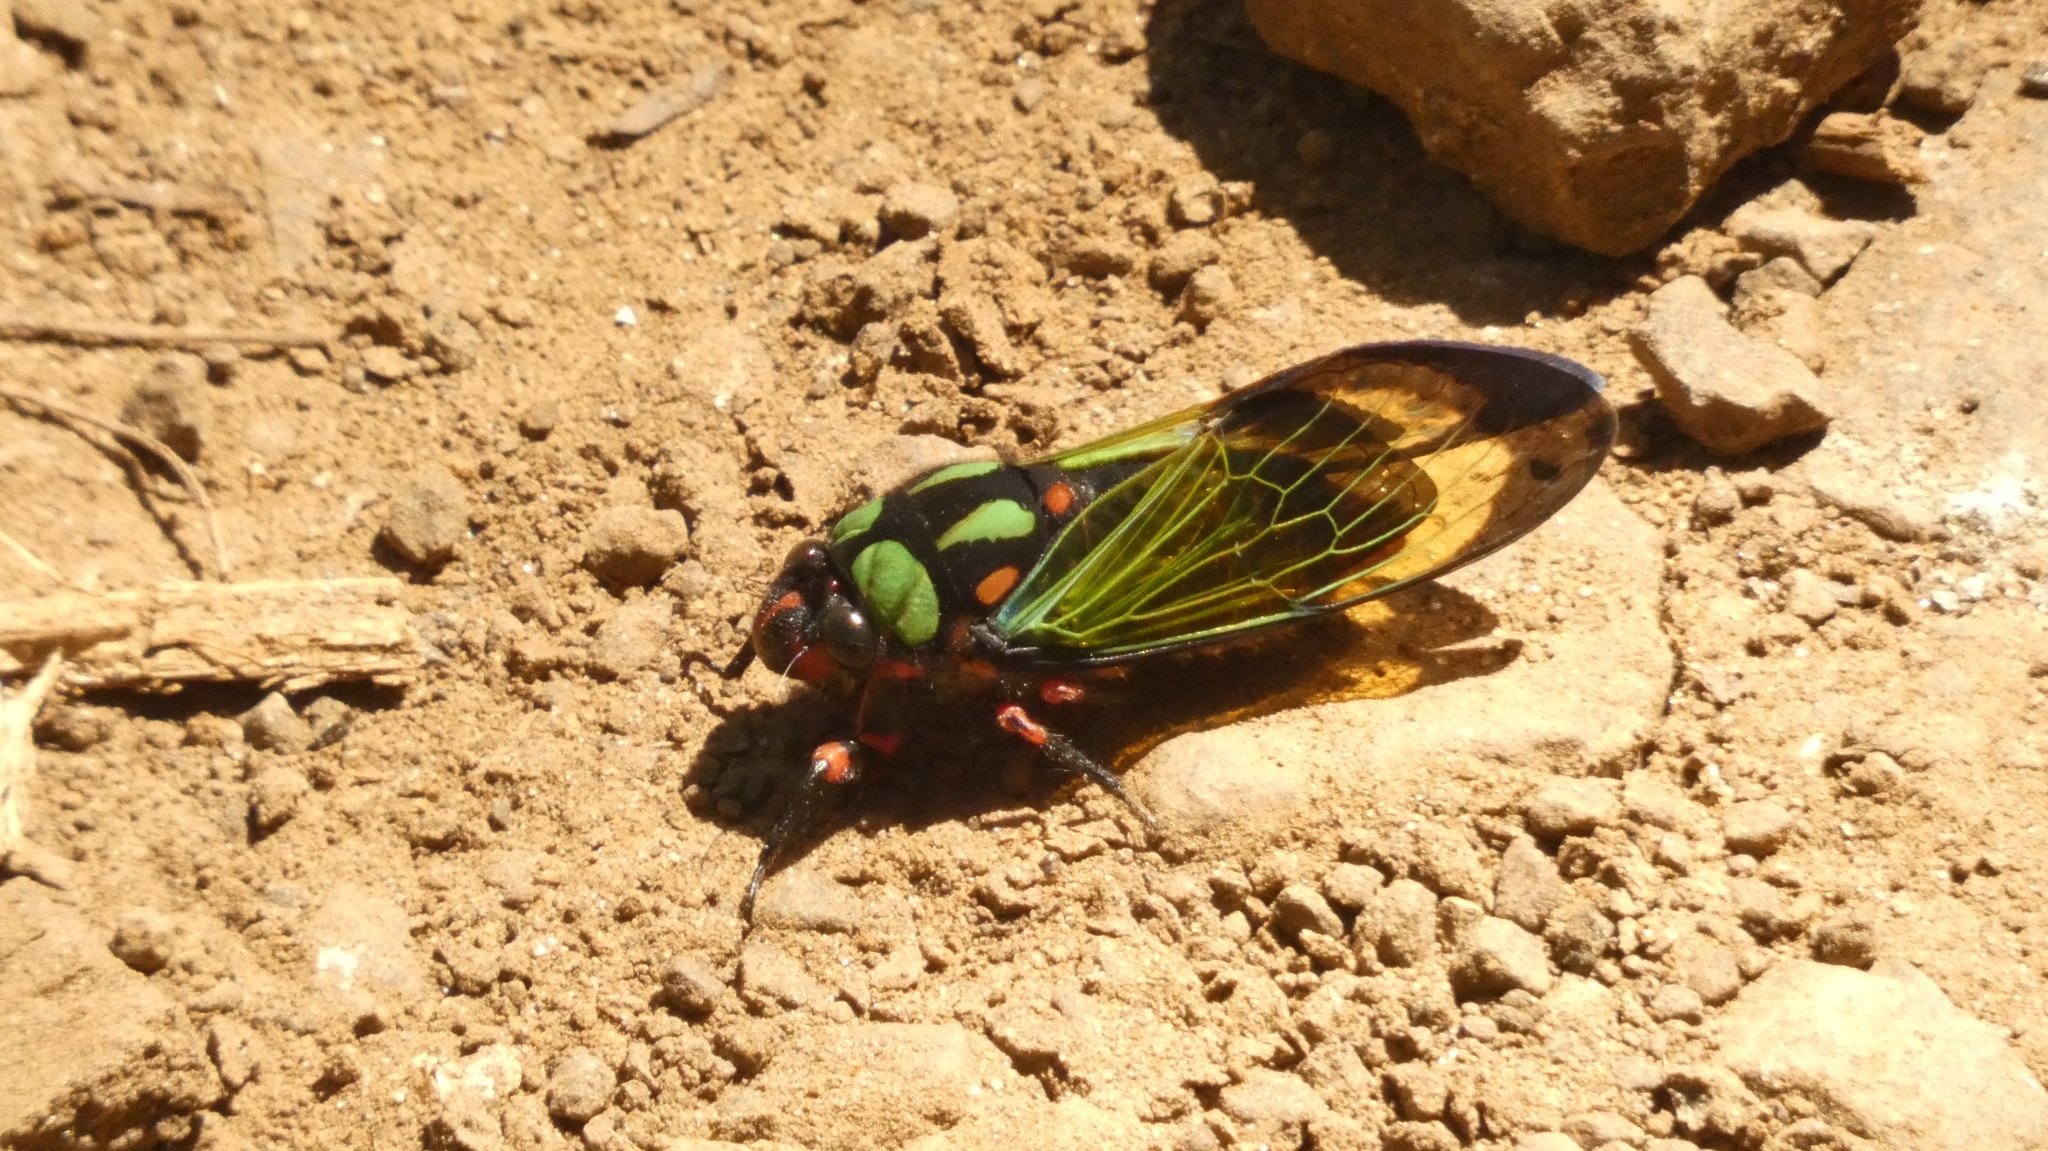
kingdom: Animalia
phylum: Arthropoda
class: Insecta
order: Hemiptera
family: Cicadidae
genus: Carineta
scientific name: Carineta diardi
